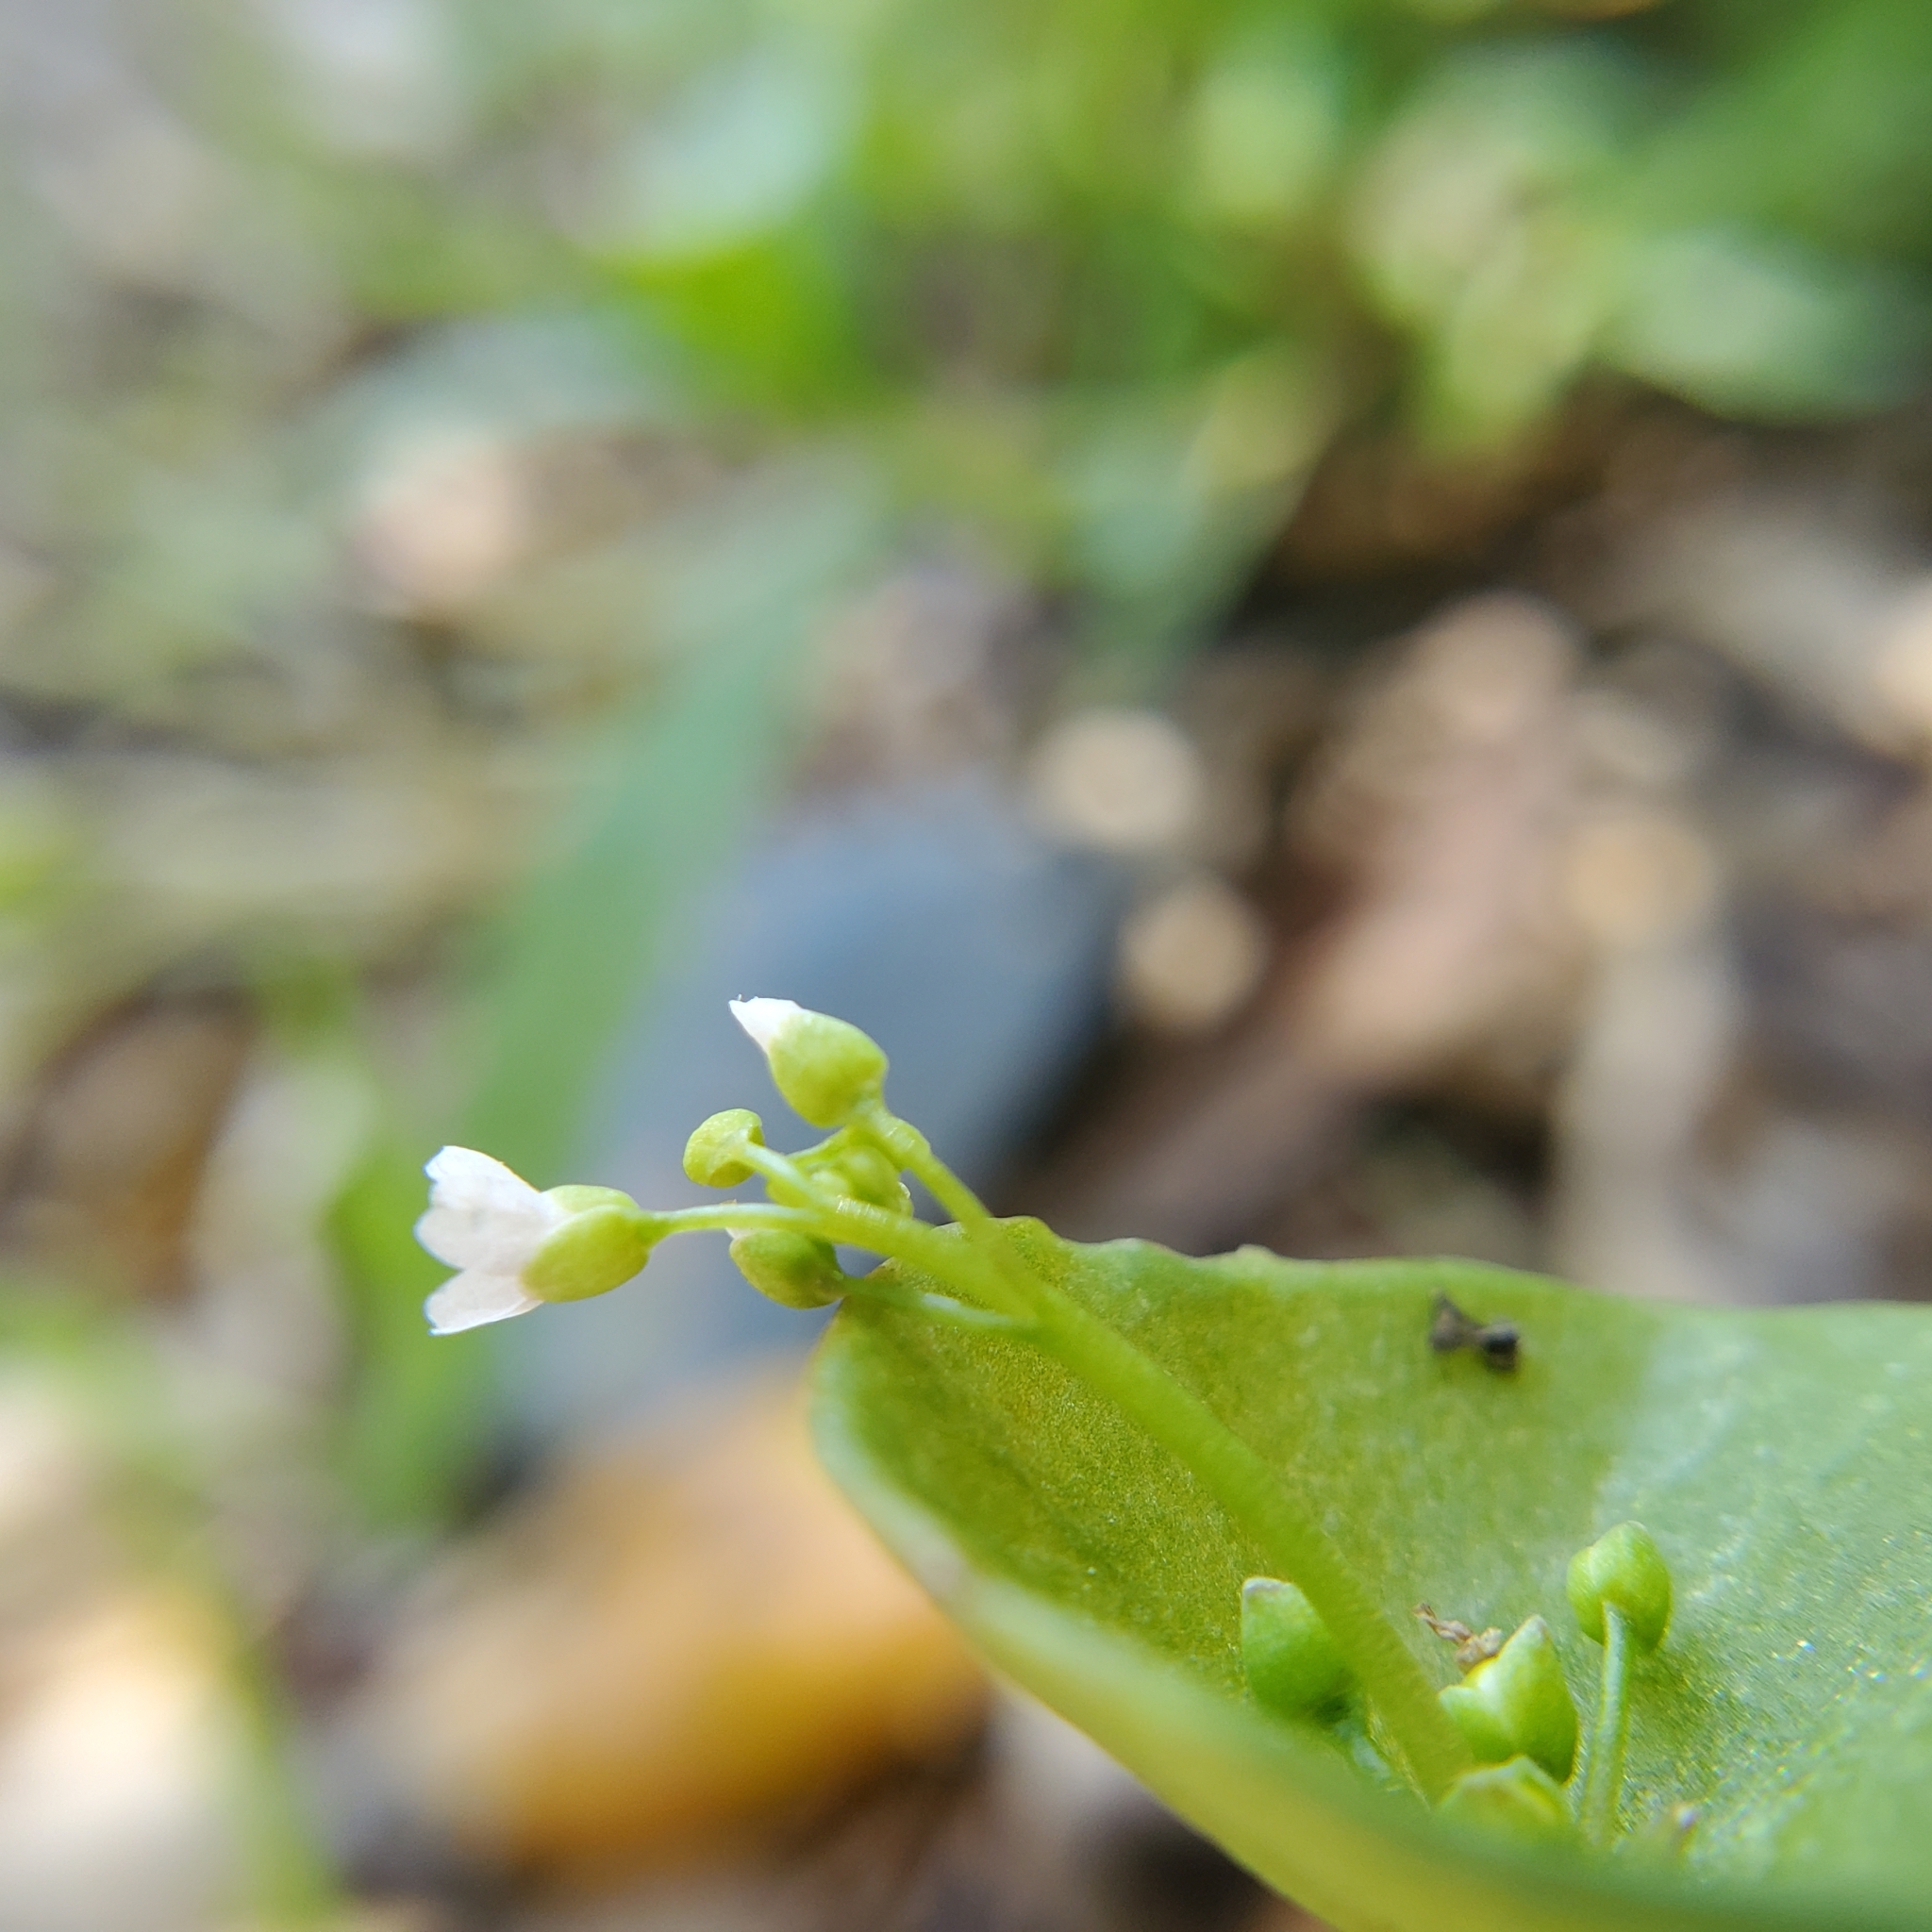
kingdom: Plantae
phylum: Tracheophyta
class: Magnoliopsida
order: Caryophyllales
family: Montiaceae
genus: Claytonia
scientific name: Claytonia perfoliata
